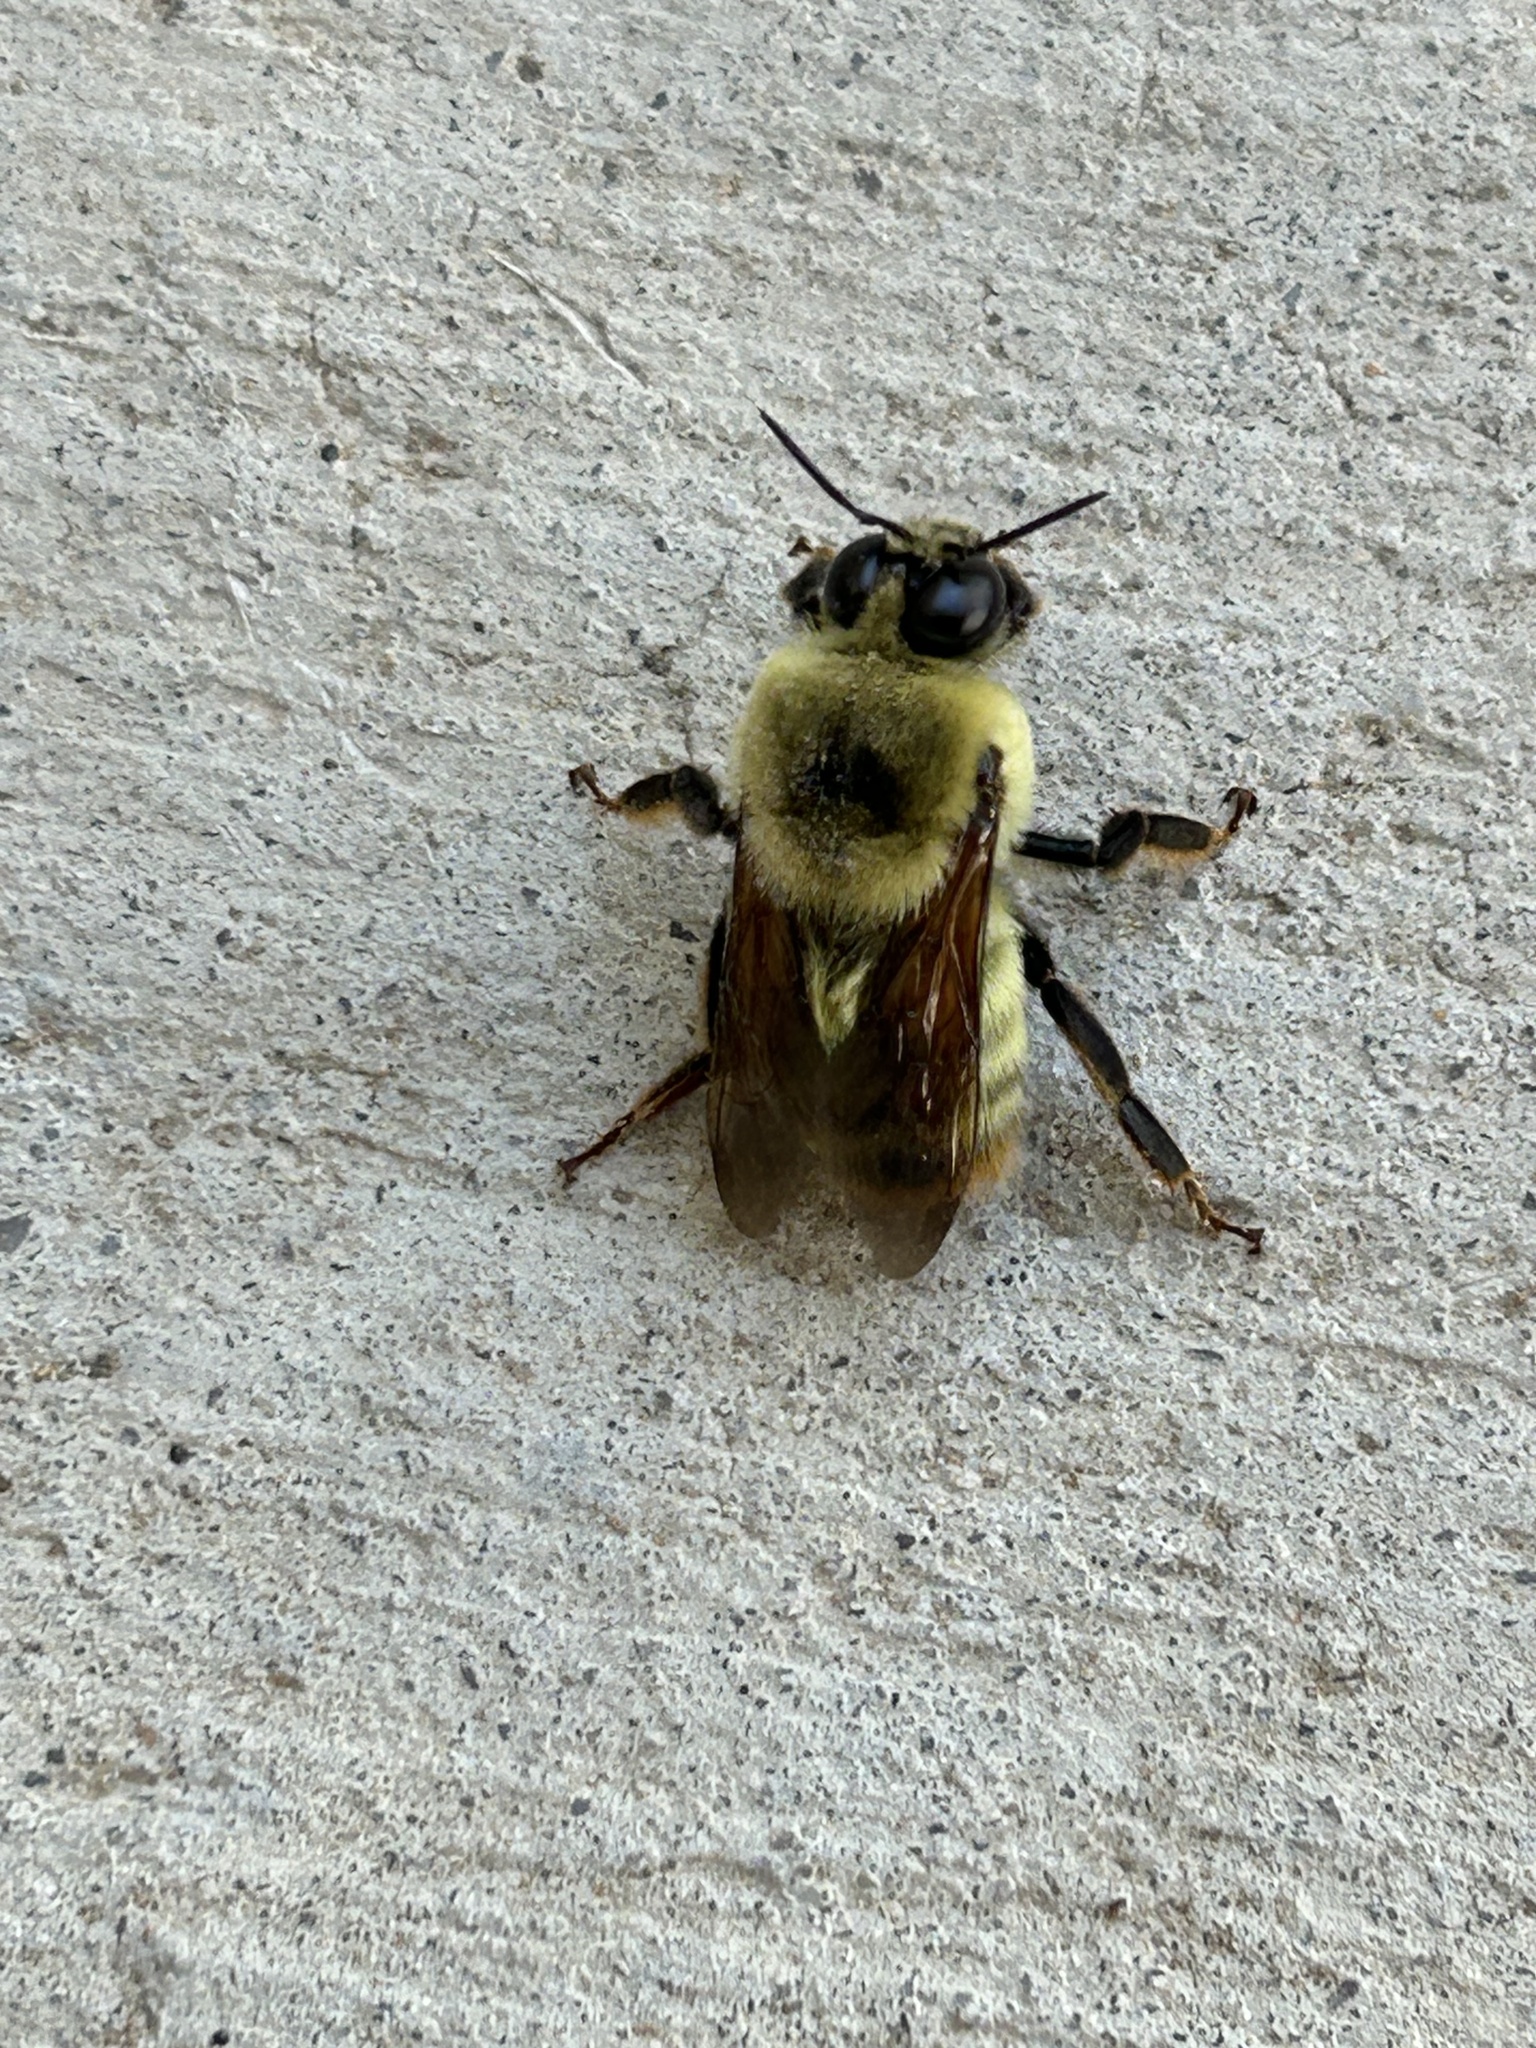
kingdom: Animalia
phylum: Arthropoda
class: Insecta
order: Hymenoptera
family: Apidae
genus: Bombus
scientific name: Bombus nevadensis
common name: Nevada bumble bee
